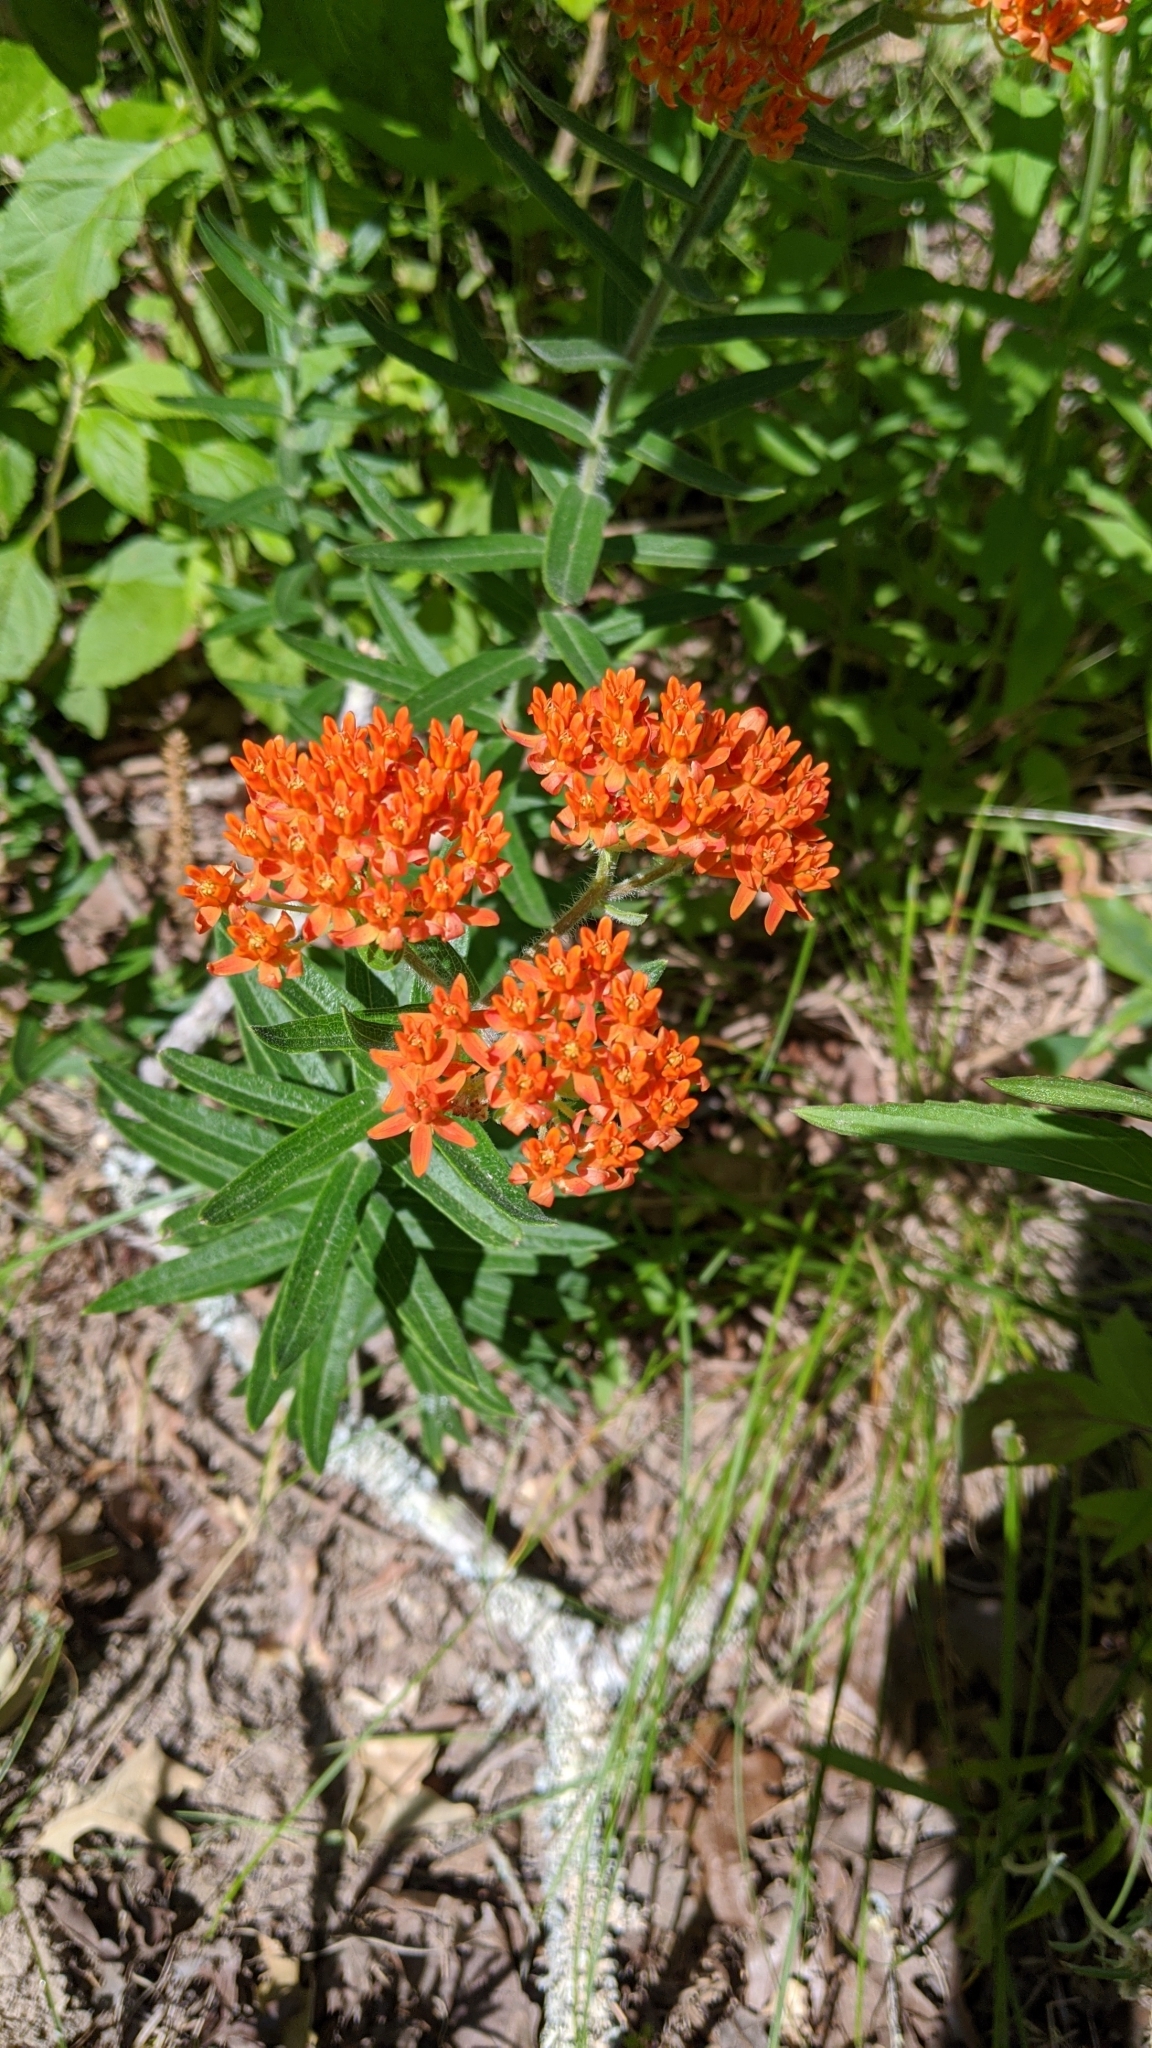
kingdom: Plantae
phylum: Tracheophyta
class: Magnoliopsida
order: Gentianales
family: Apocynaceae
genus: Asclepias
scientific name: Asclepias tuberosa
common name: Butterfly milkweed
